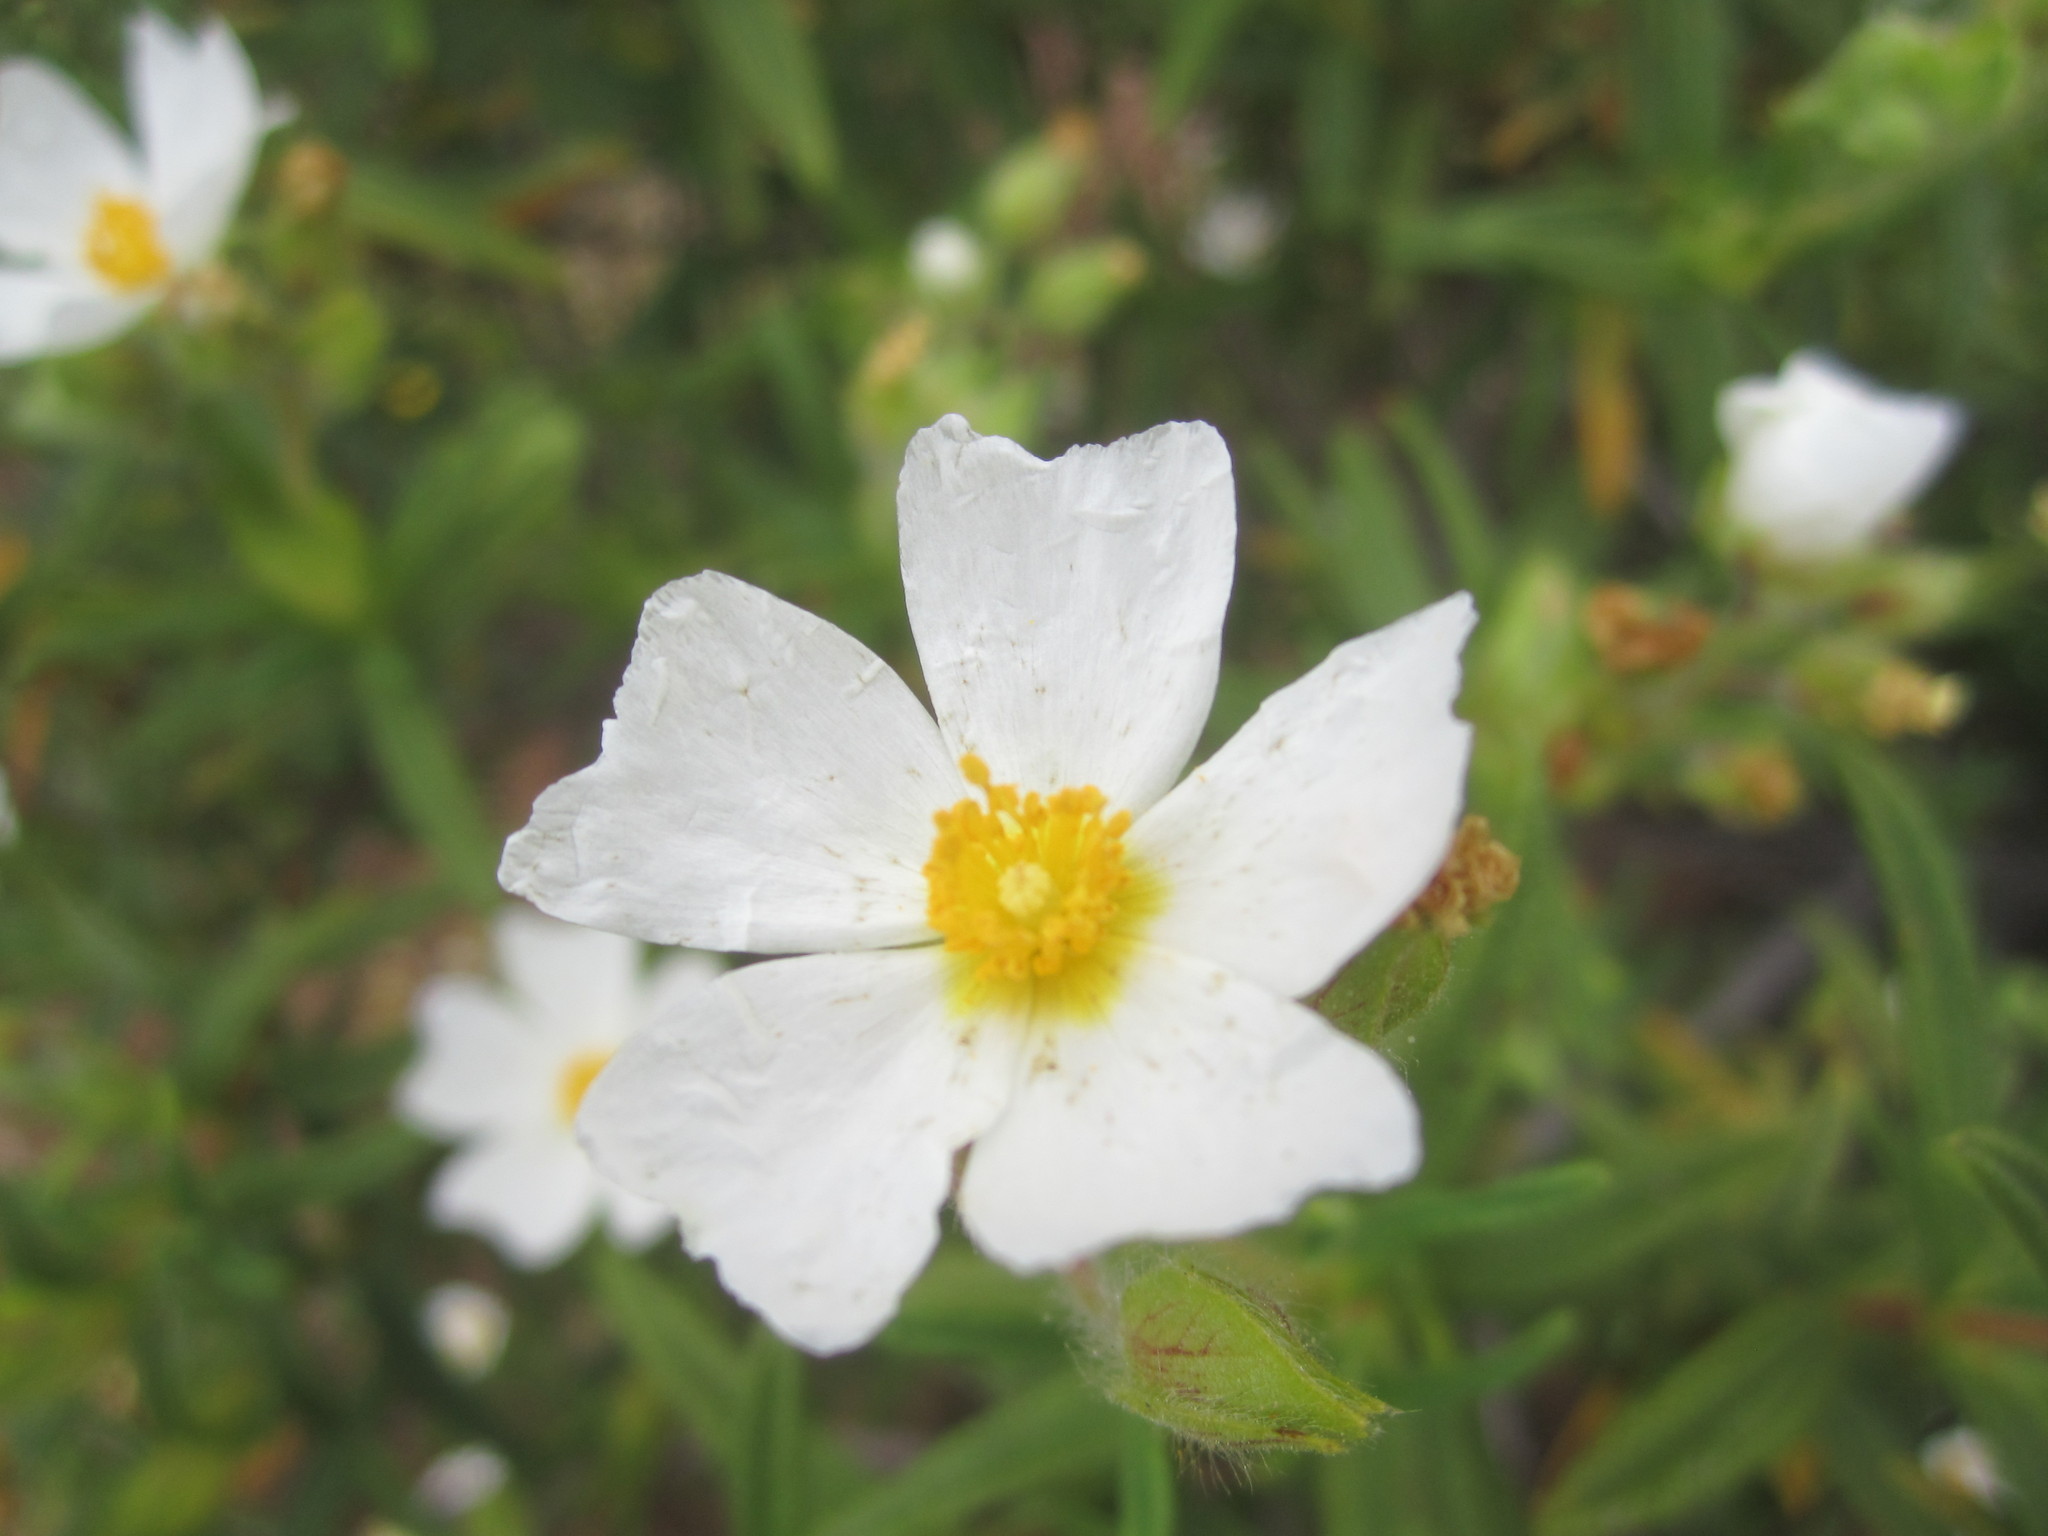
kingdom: Plantae
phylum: Tracheophyta
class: Magnoliopsida
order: Malvales
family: Cistaceae
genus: Cistus
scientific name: Cistus monspeliensis
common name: Montpelier cistus
